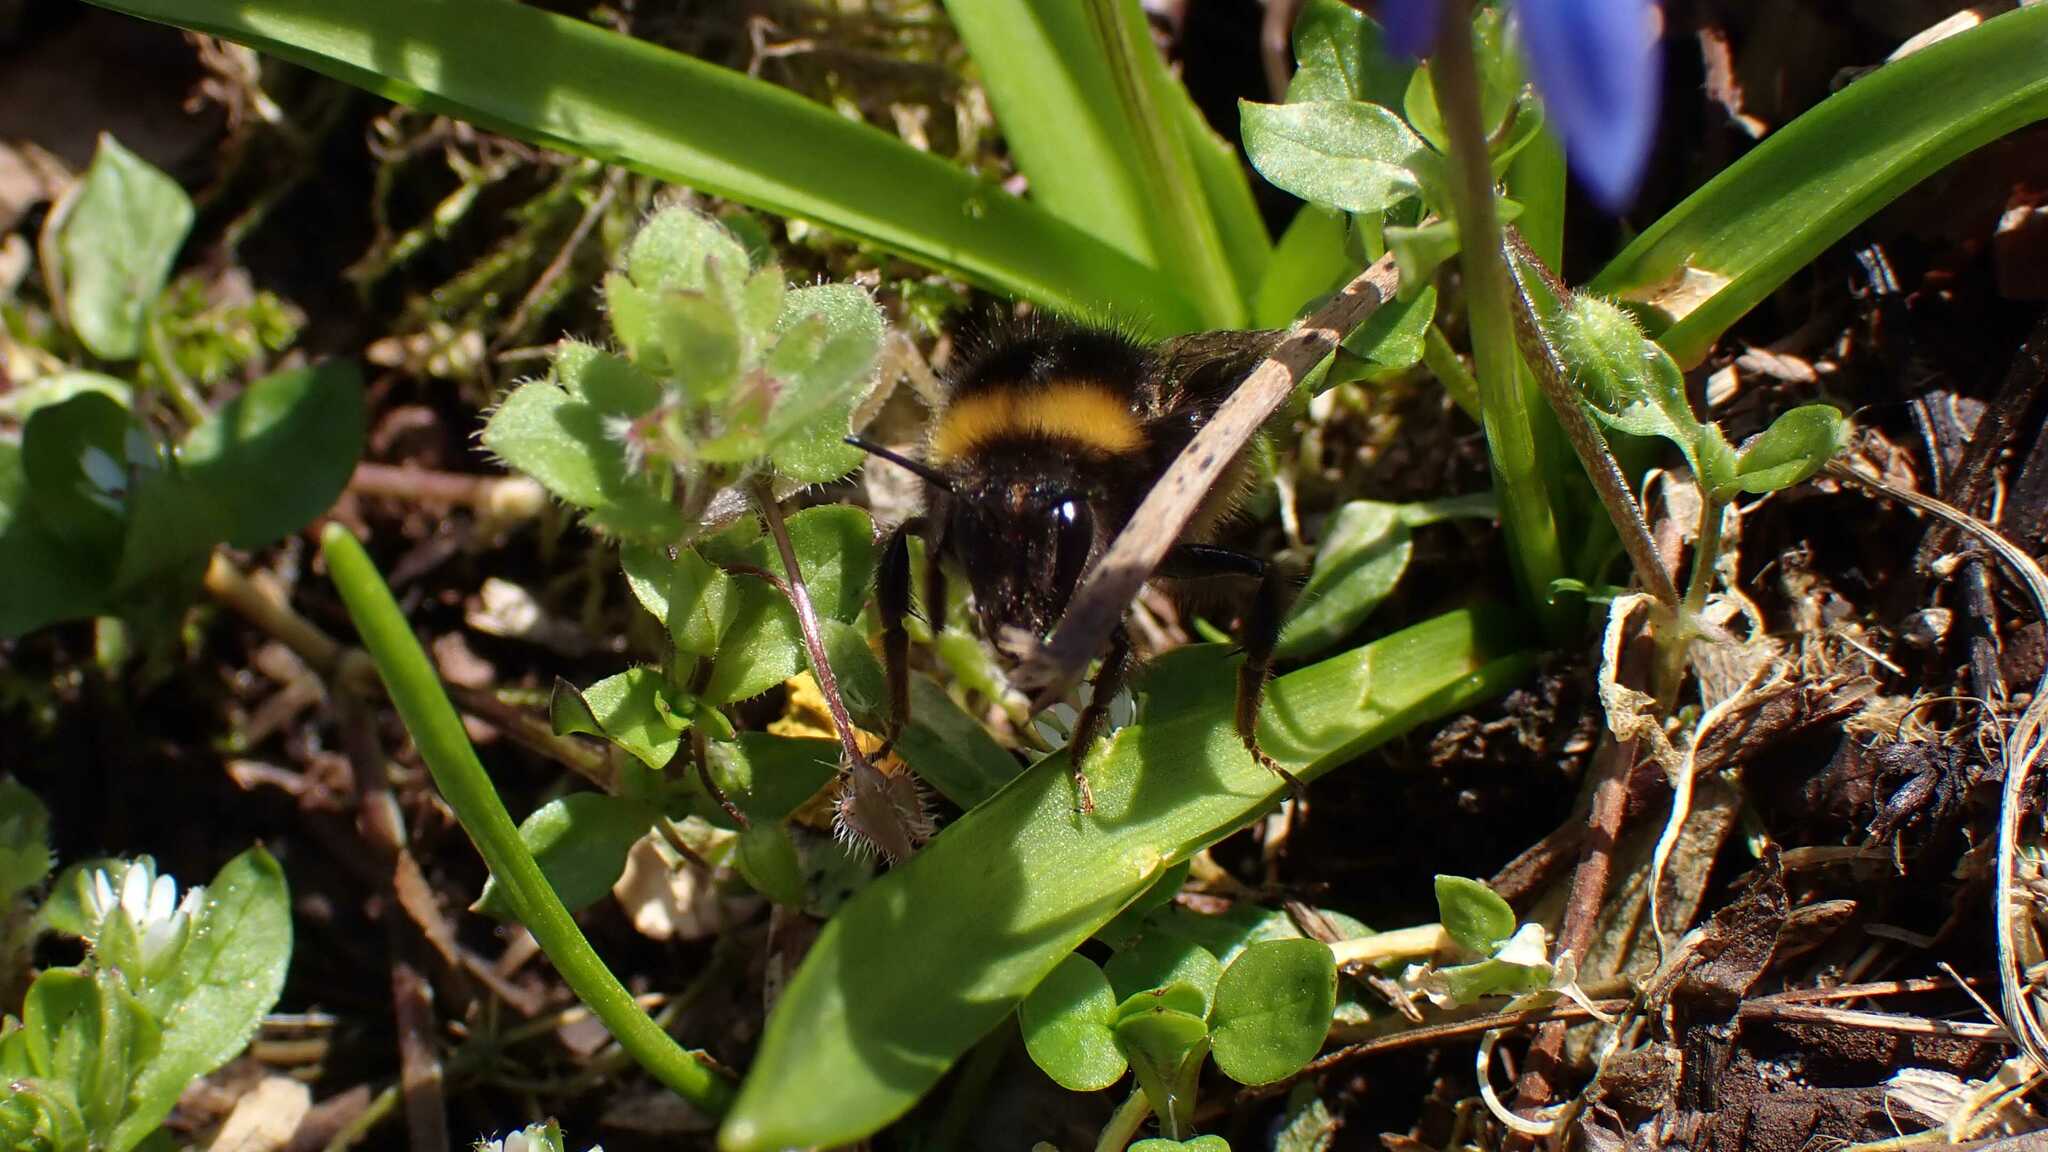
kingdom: Animalia
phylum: Arthropoda
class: Insecta
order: Hymenoptera
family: Apidae
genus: Bombus
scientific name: Bombus pratorum
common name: Early humble-bee
